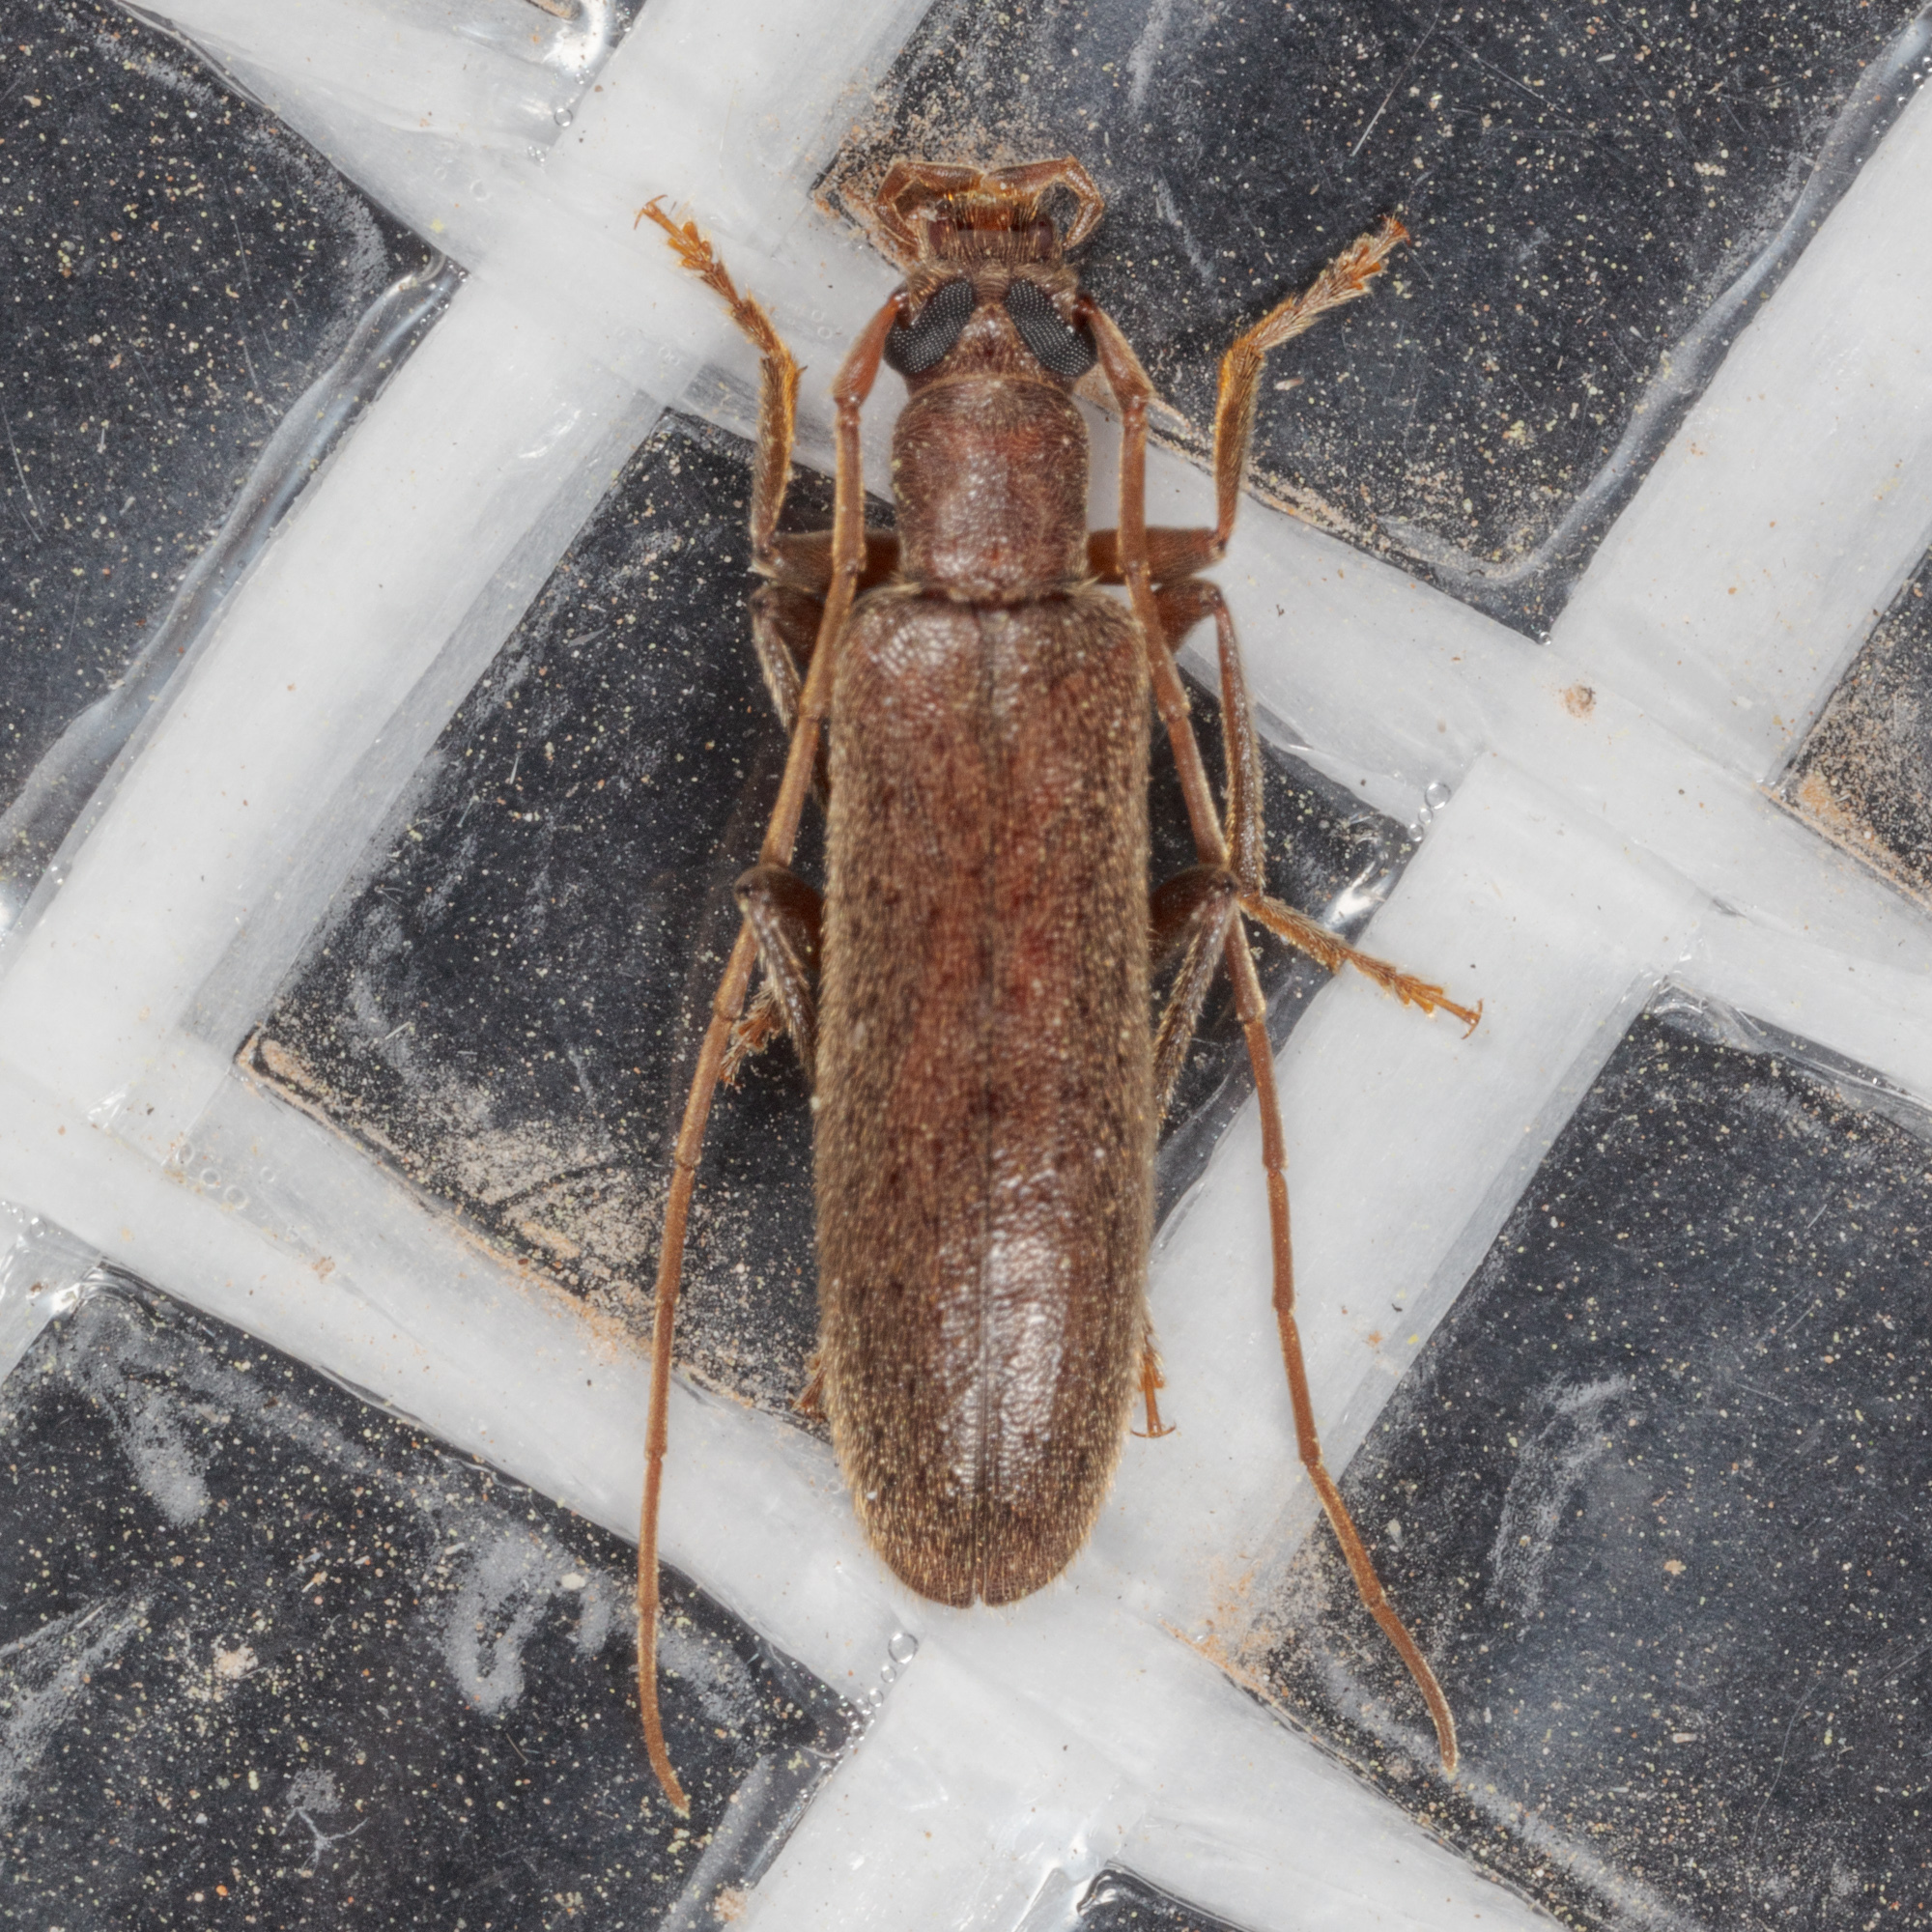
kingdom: Animalia
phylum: Arthropoda
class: Insecta
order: Coleoptera
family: Oedemeridae
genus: Sparedrus
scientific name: Sparedrus aspersus
